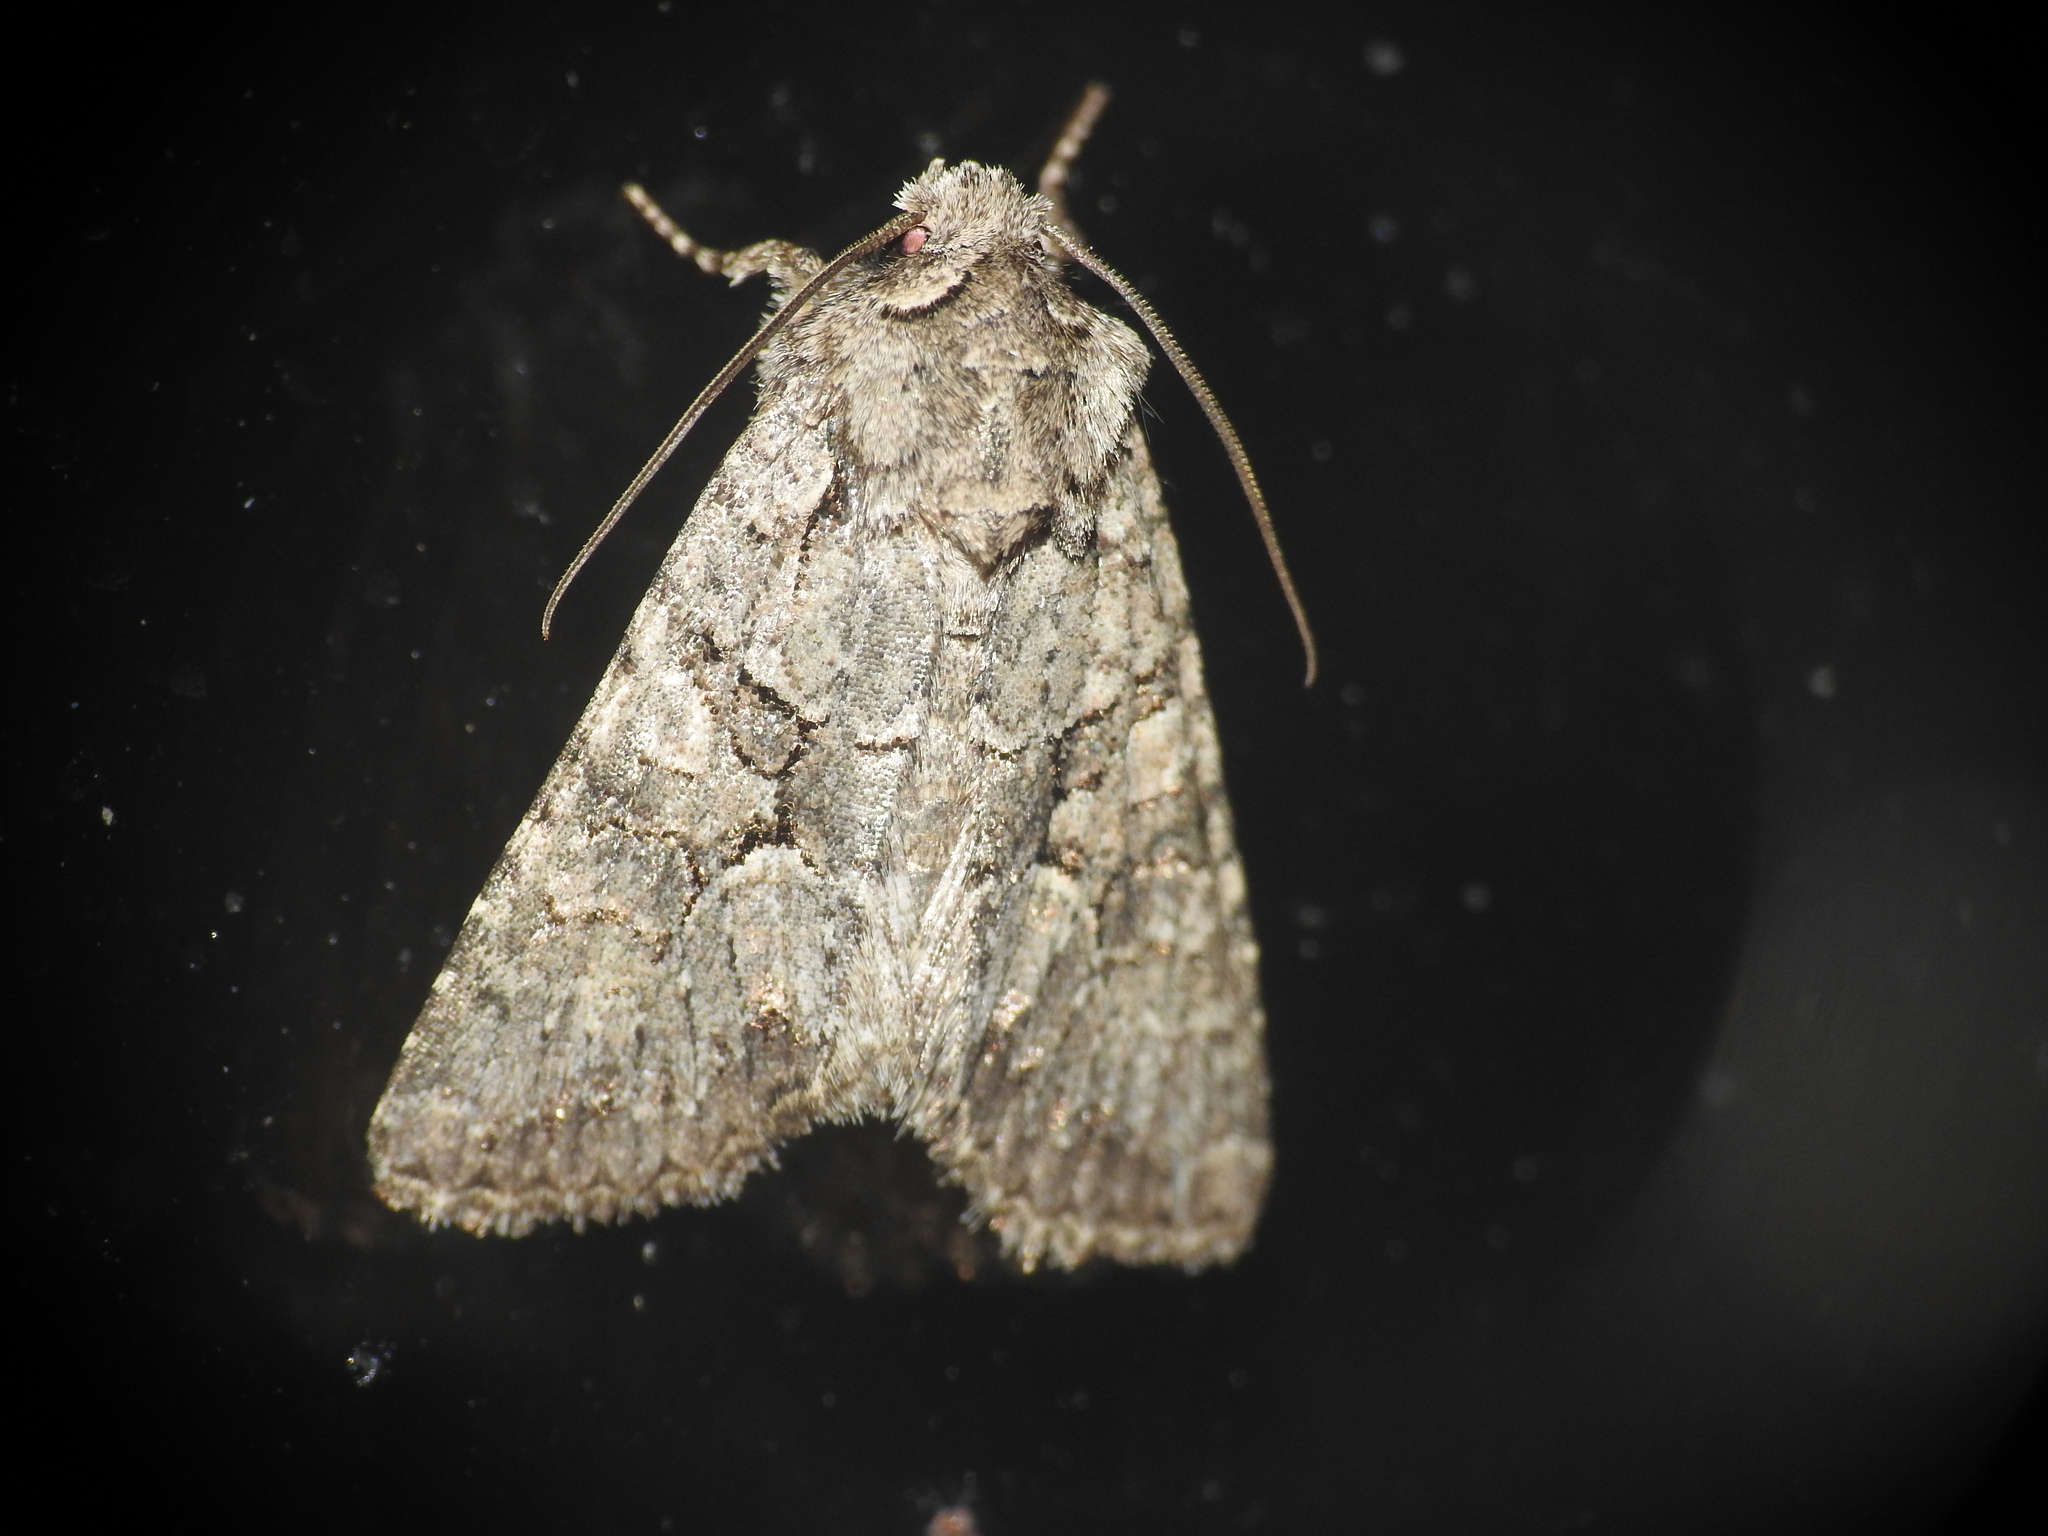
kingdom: Animalia
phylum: Arthropoda
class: Insecta
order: Lepidoptera
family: Noctuidae
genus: Dryobotodes
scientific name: Dryobotodes monochroma
